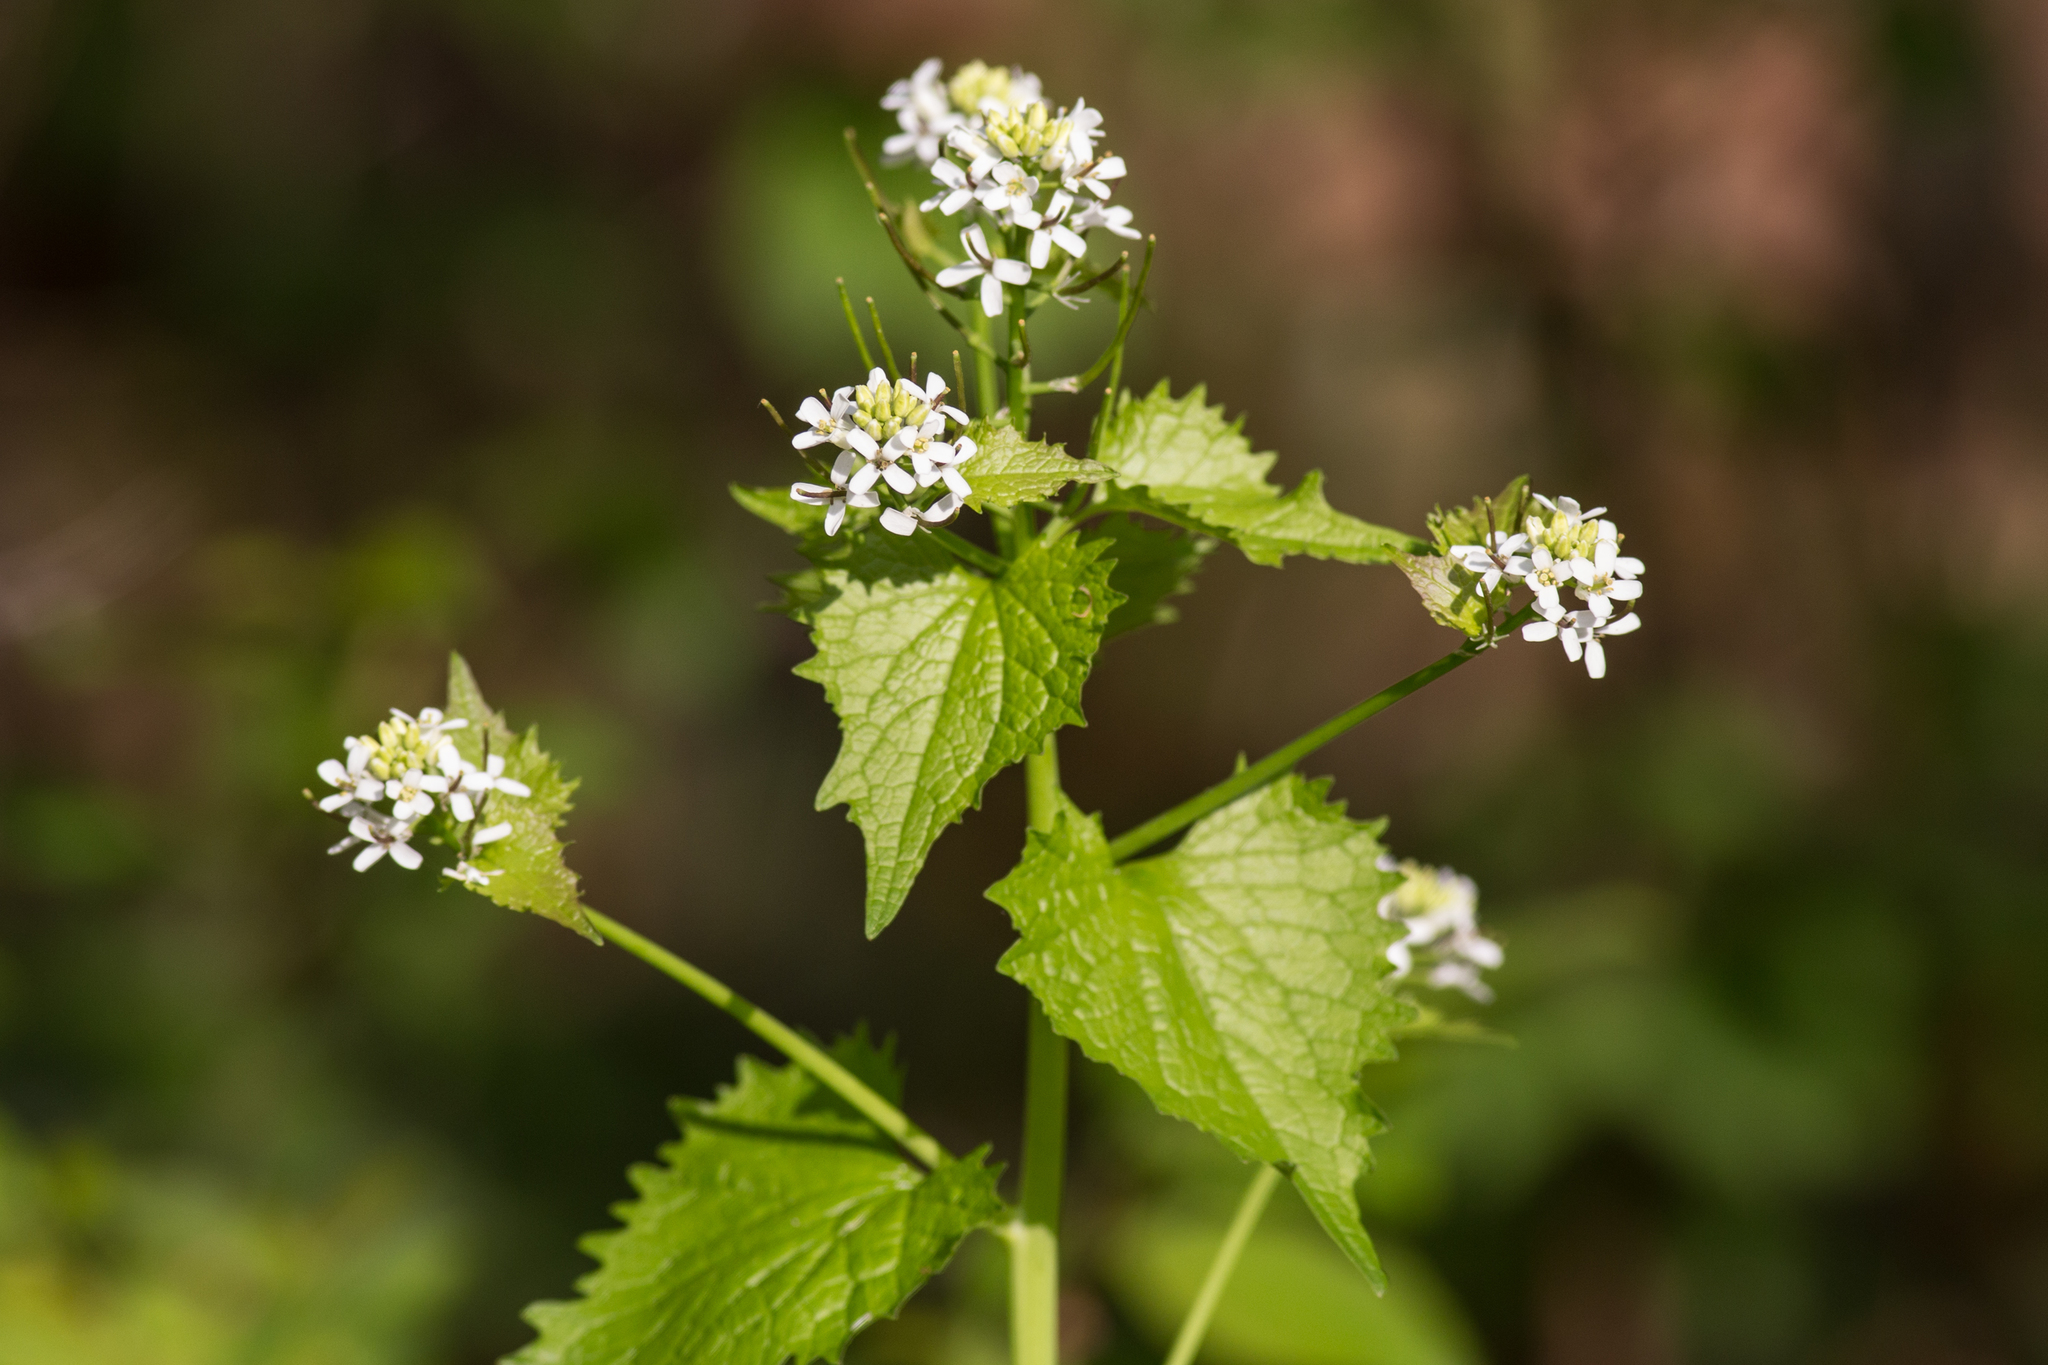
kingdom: Plantae
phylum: Tracheophyta
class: Magnoliopsida
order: Brassicales
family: Brassicaceae
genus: Alliaria
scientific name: Alliaria petiolata
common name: Garlic mustard
